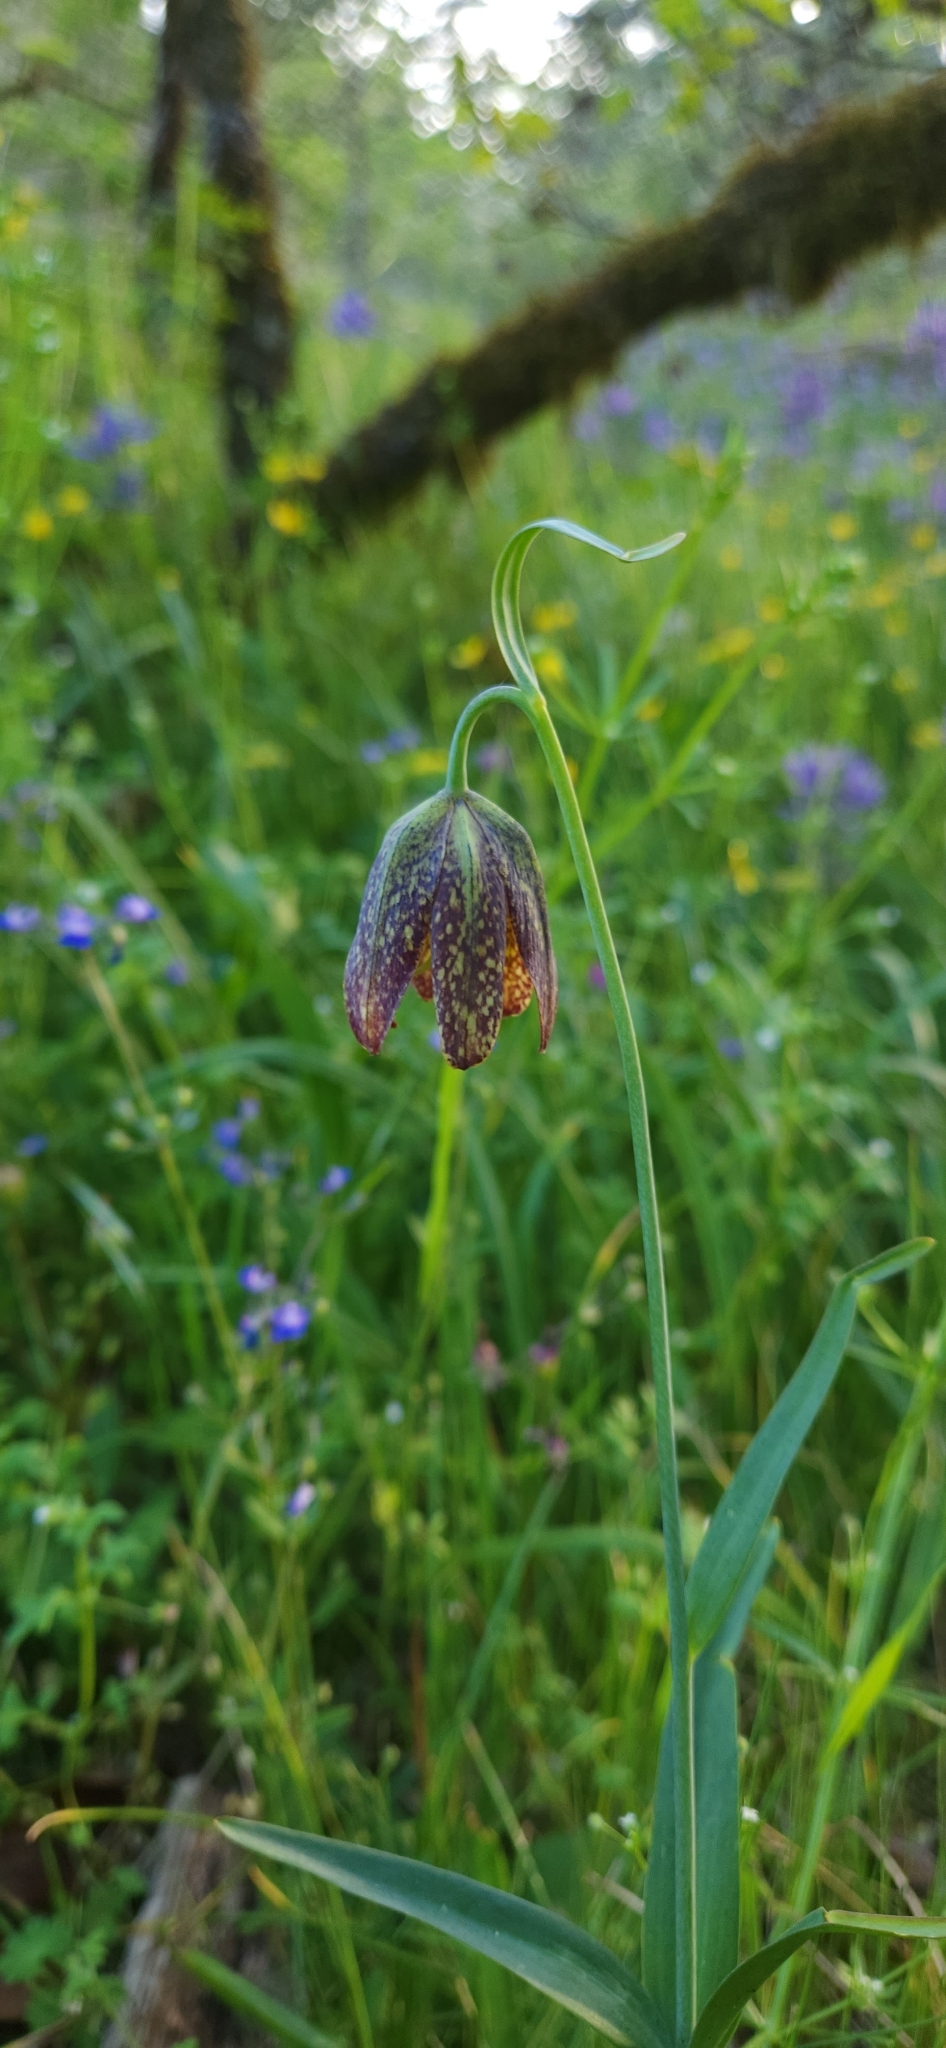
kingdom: Plantae
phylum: Tracheophyta
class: Liliopsida
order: Liliales
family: Liliaceae
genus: Fritillaria
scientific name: Fritillaria affinis
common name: Ojai fritillary
